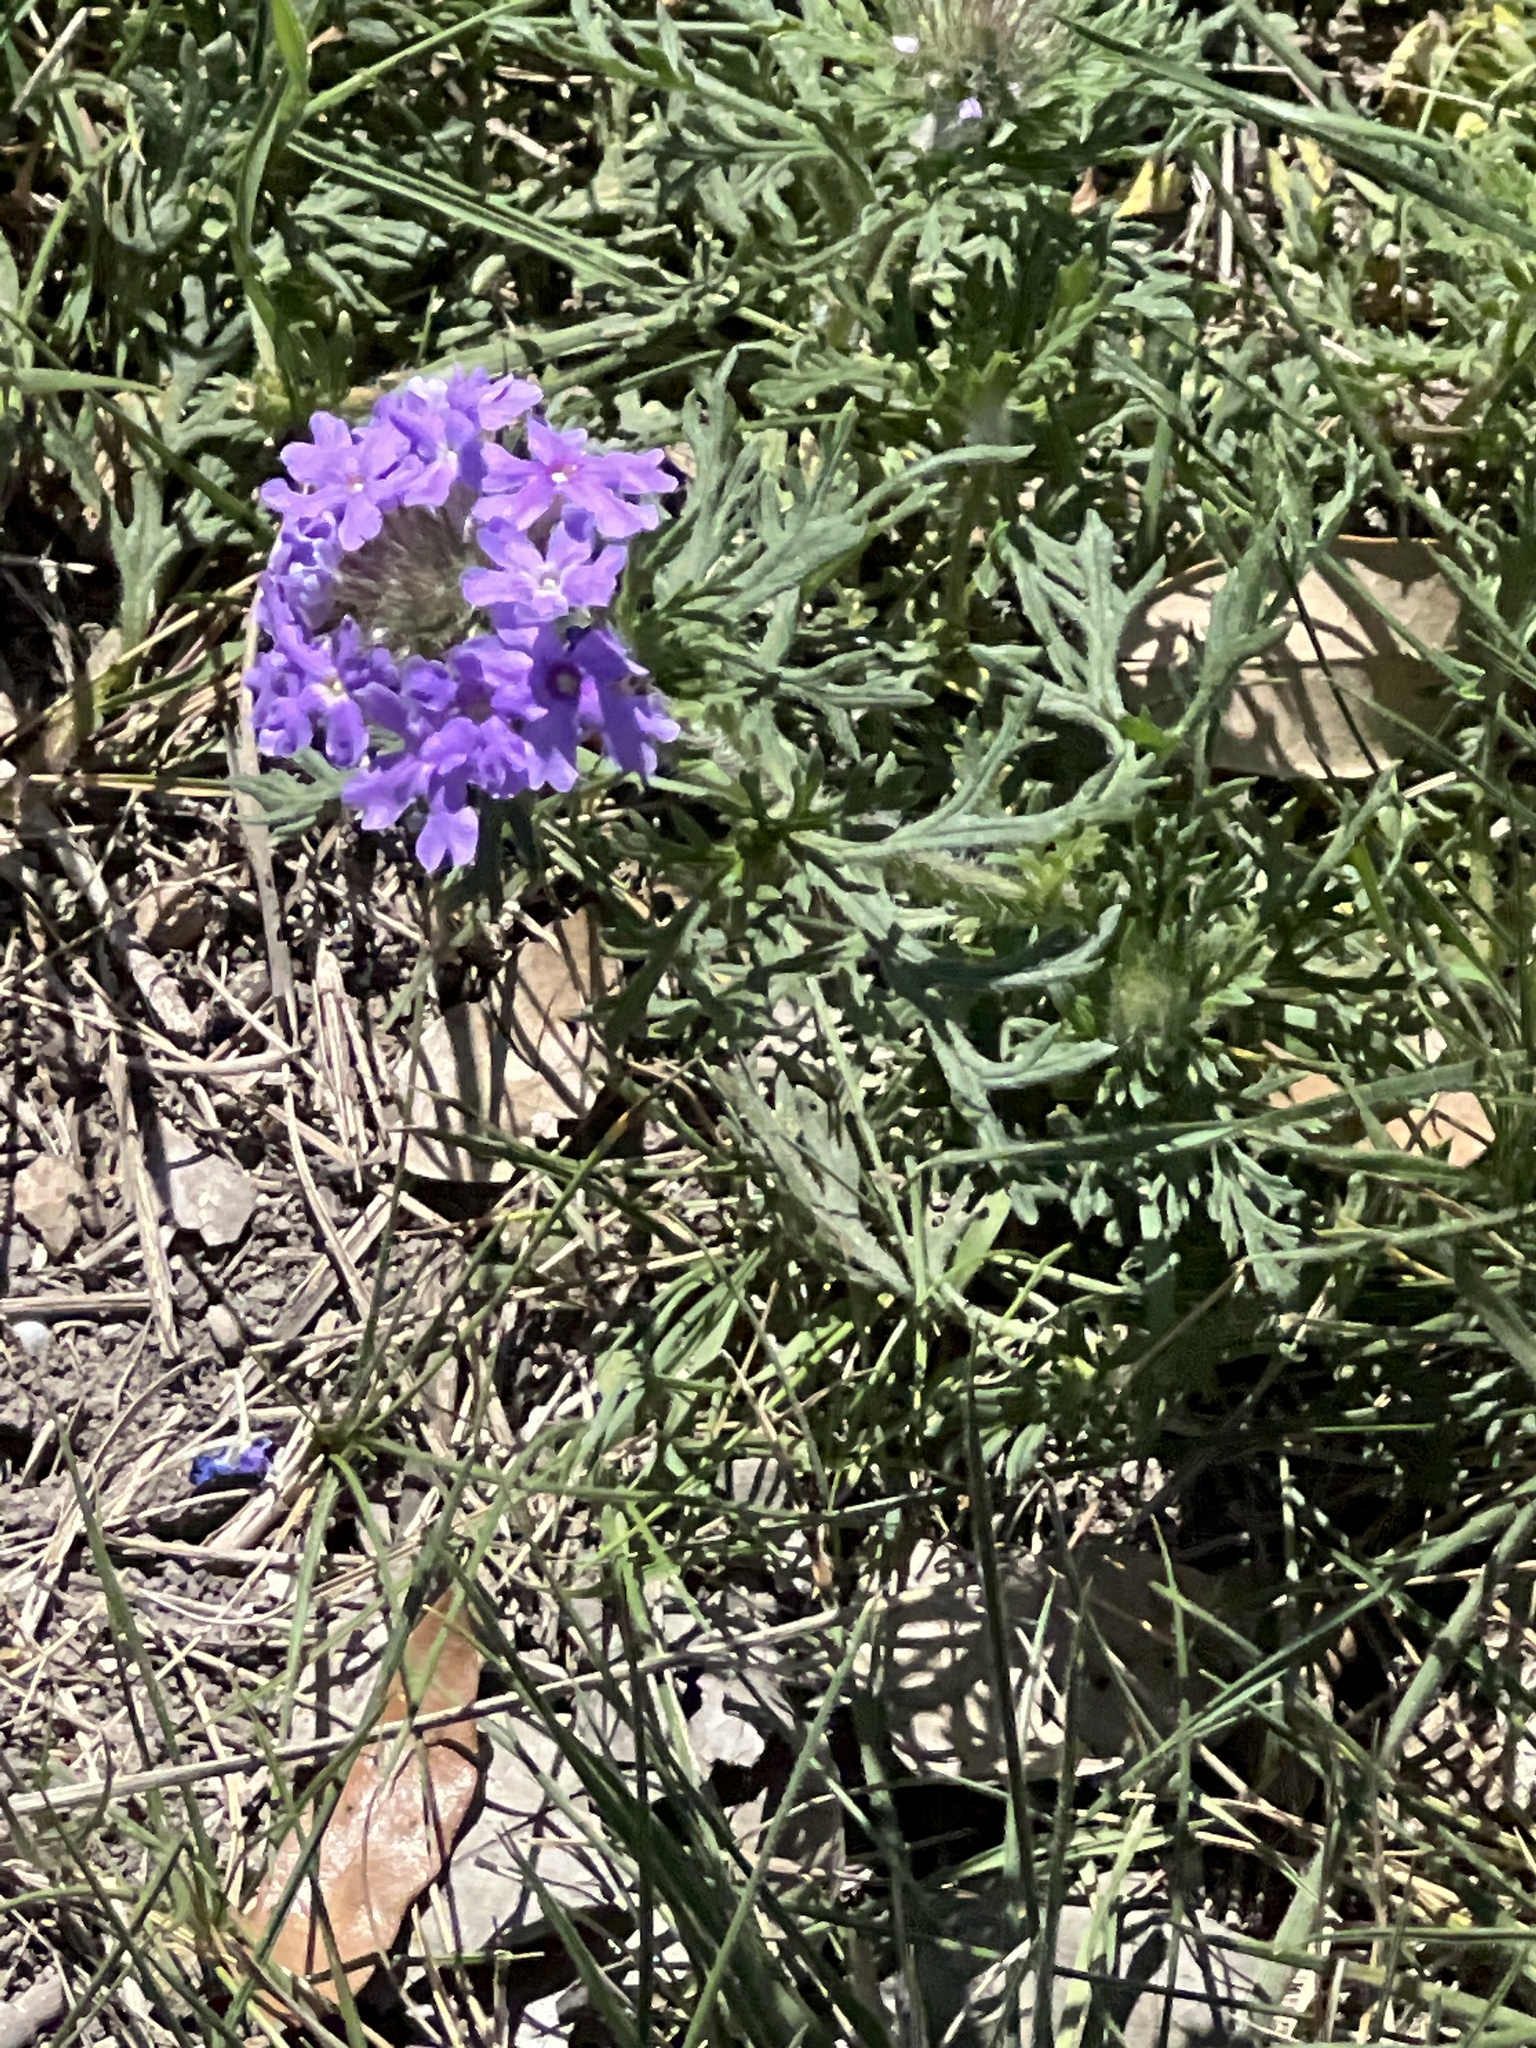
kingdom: Plantae
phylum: Tracheophyta
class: Magnoliopsida
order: Lamiales
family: Verbenaceae
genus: Verbena
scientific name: Verbena bipinnatifida
